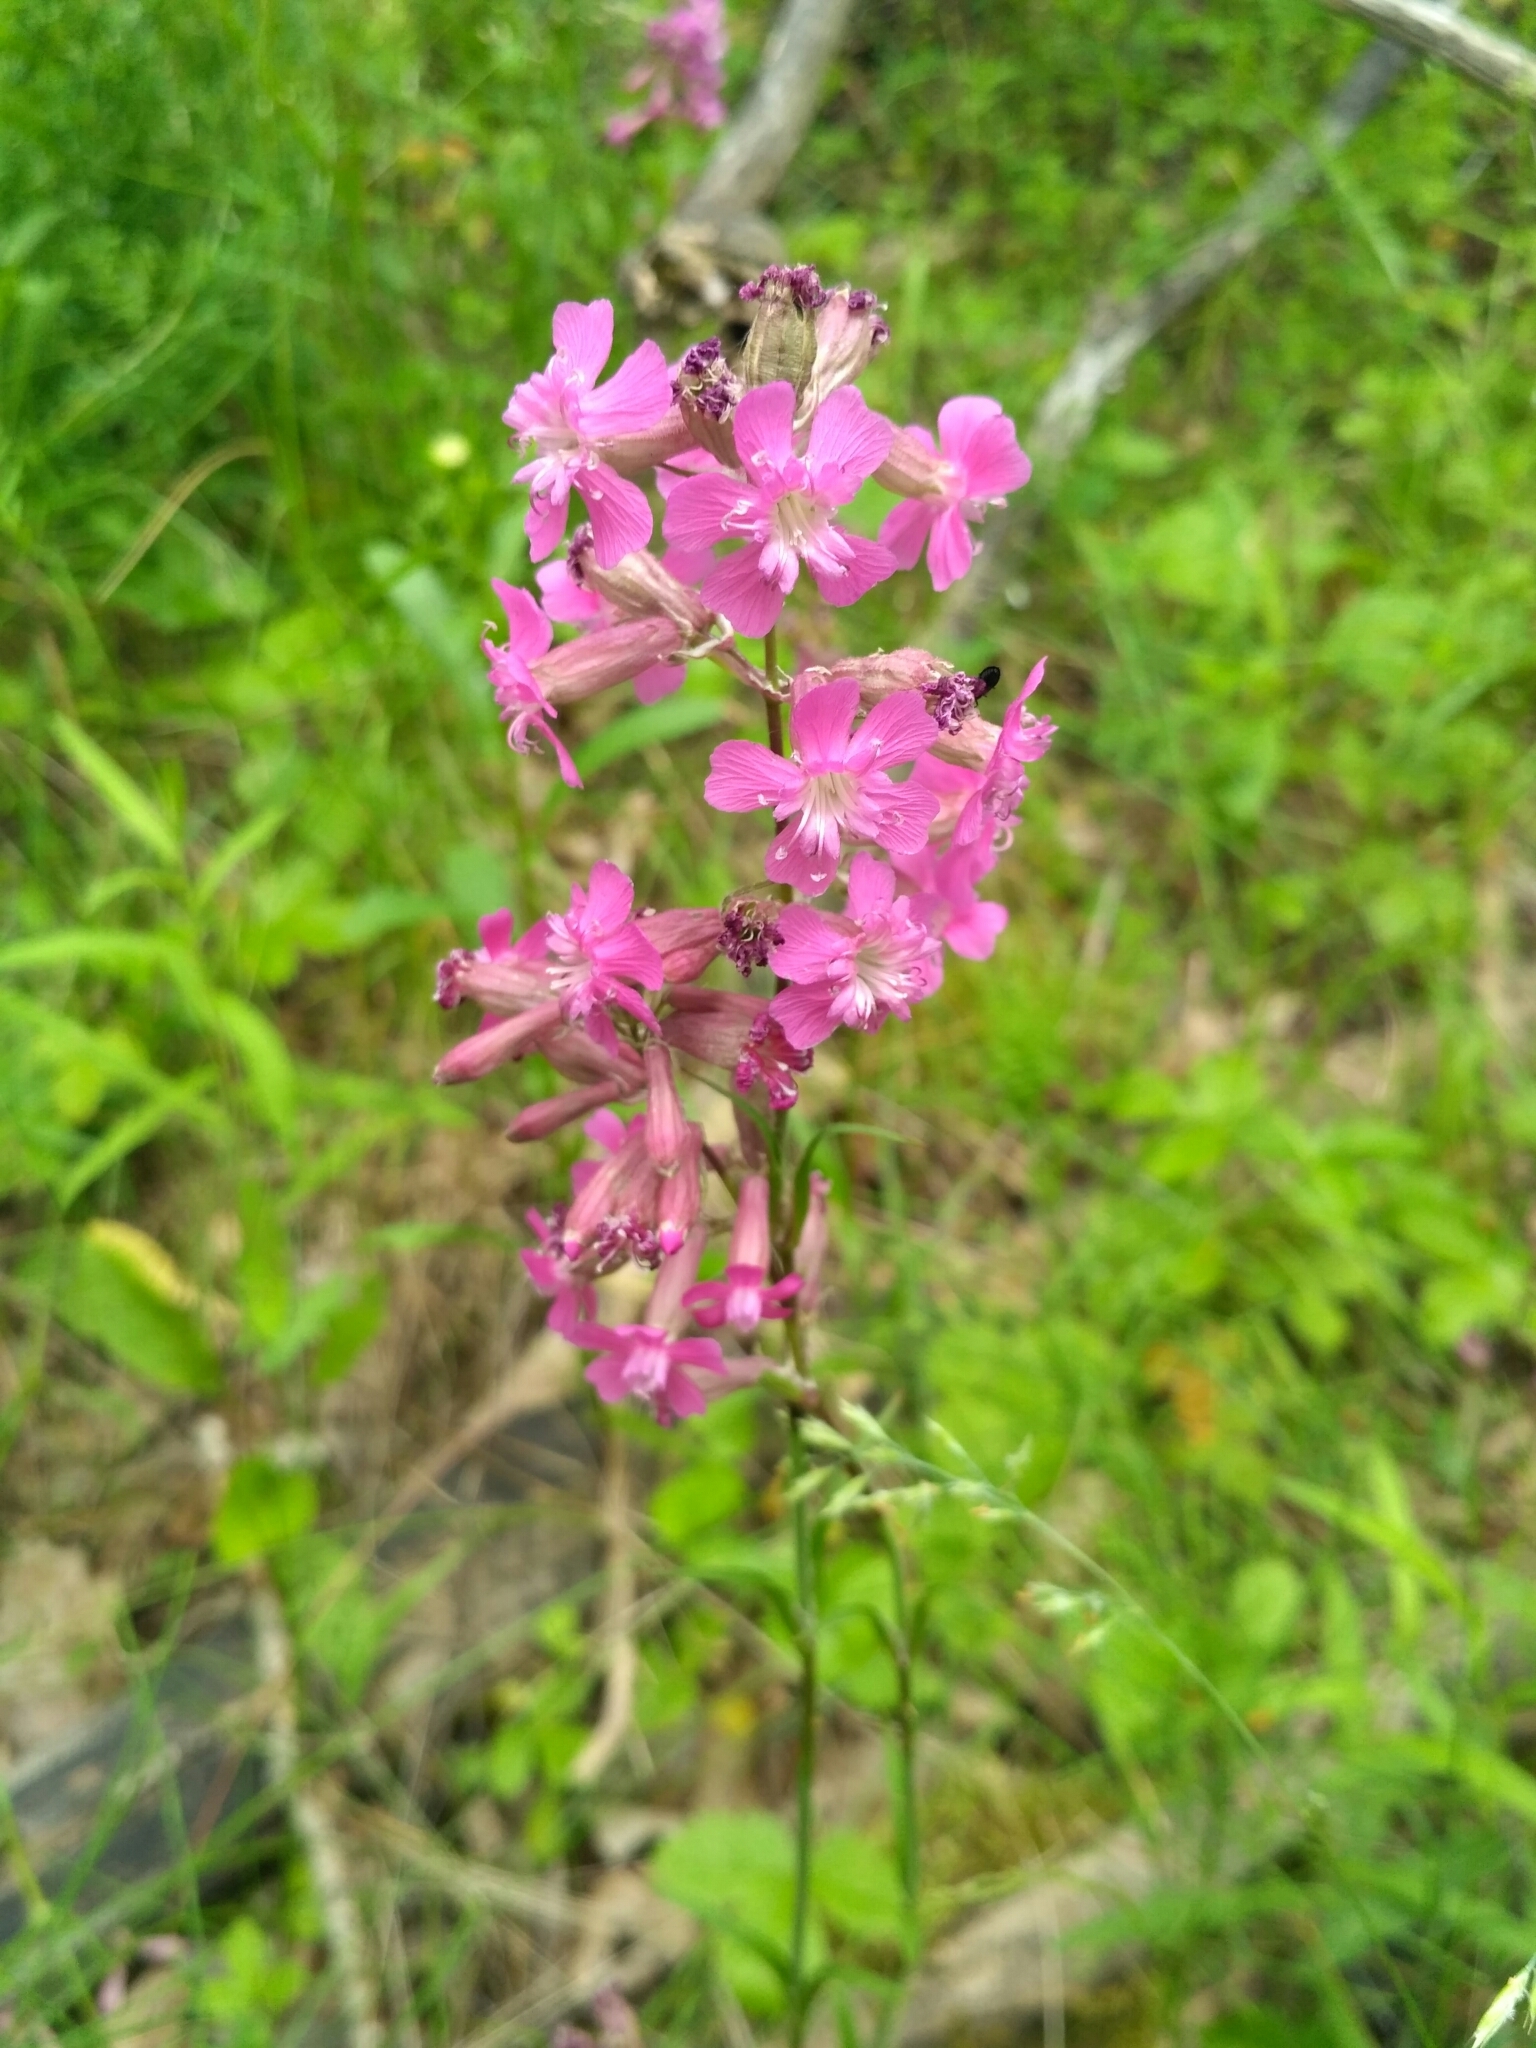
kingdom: Plantae
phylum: Tracheophyta
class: Magnoliopsida
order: Caryophyllales
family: Caryophyllaceae
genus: Viscaria
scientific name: Viscaria vulgaris
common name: Clammy campion
